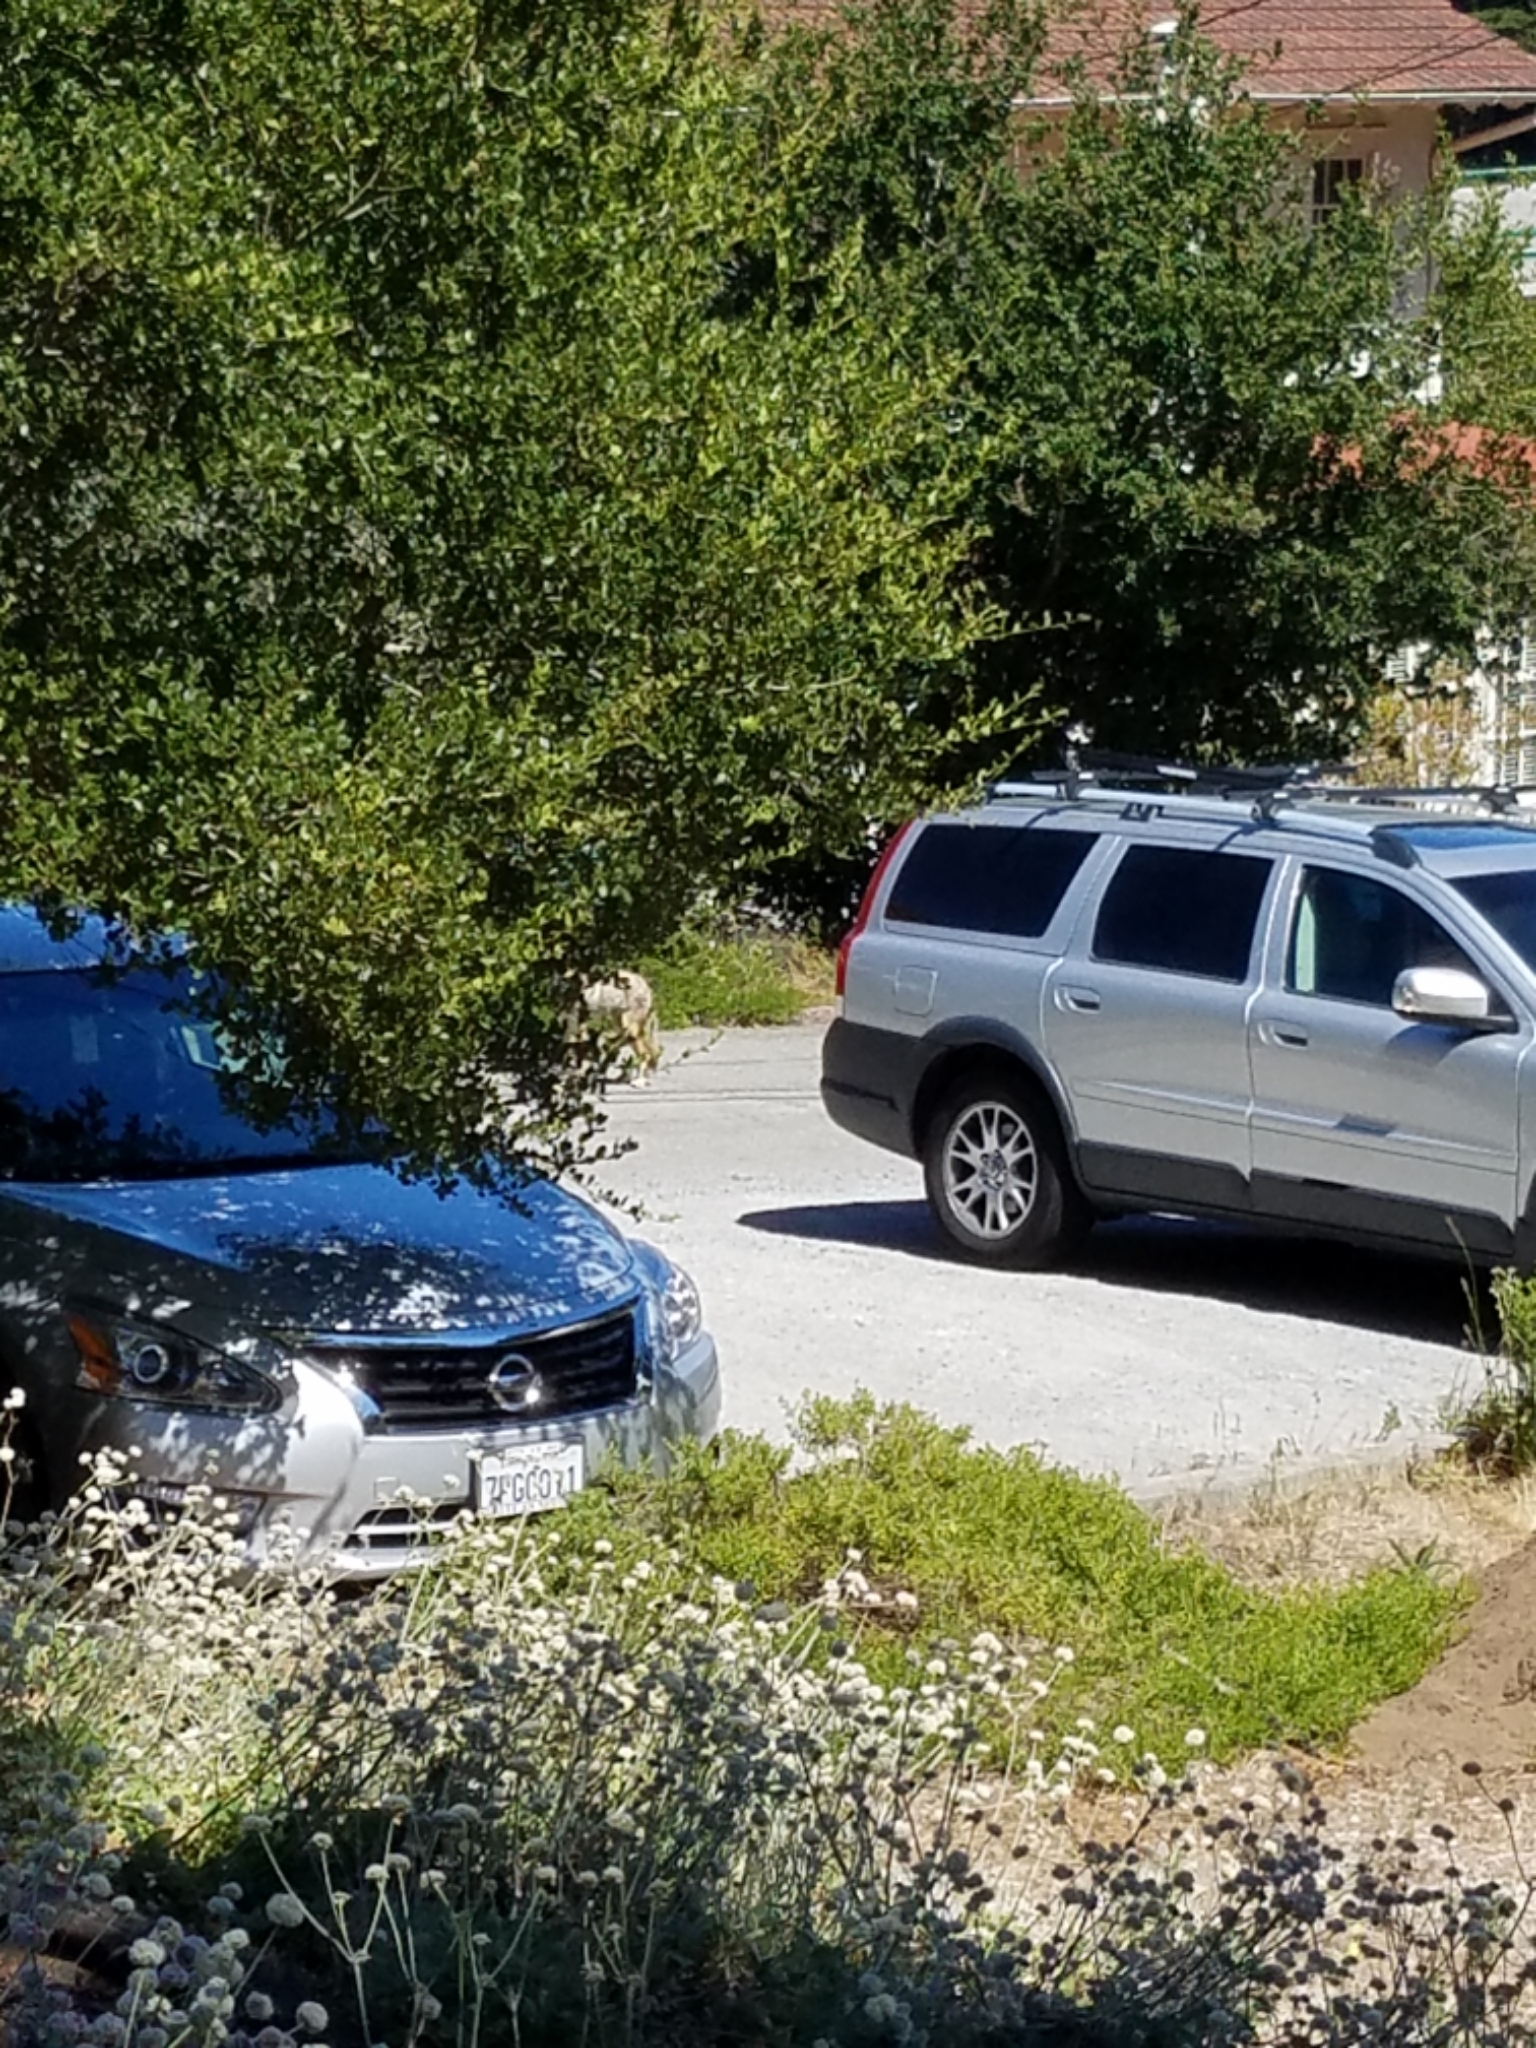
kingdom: Animalia
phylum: Chordata
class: Mammalia
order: Carnivora
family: Canidae
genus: Canis
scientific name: Canis latrans
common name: Coyote
